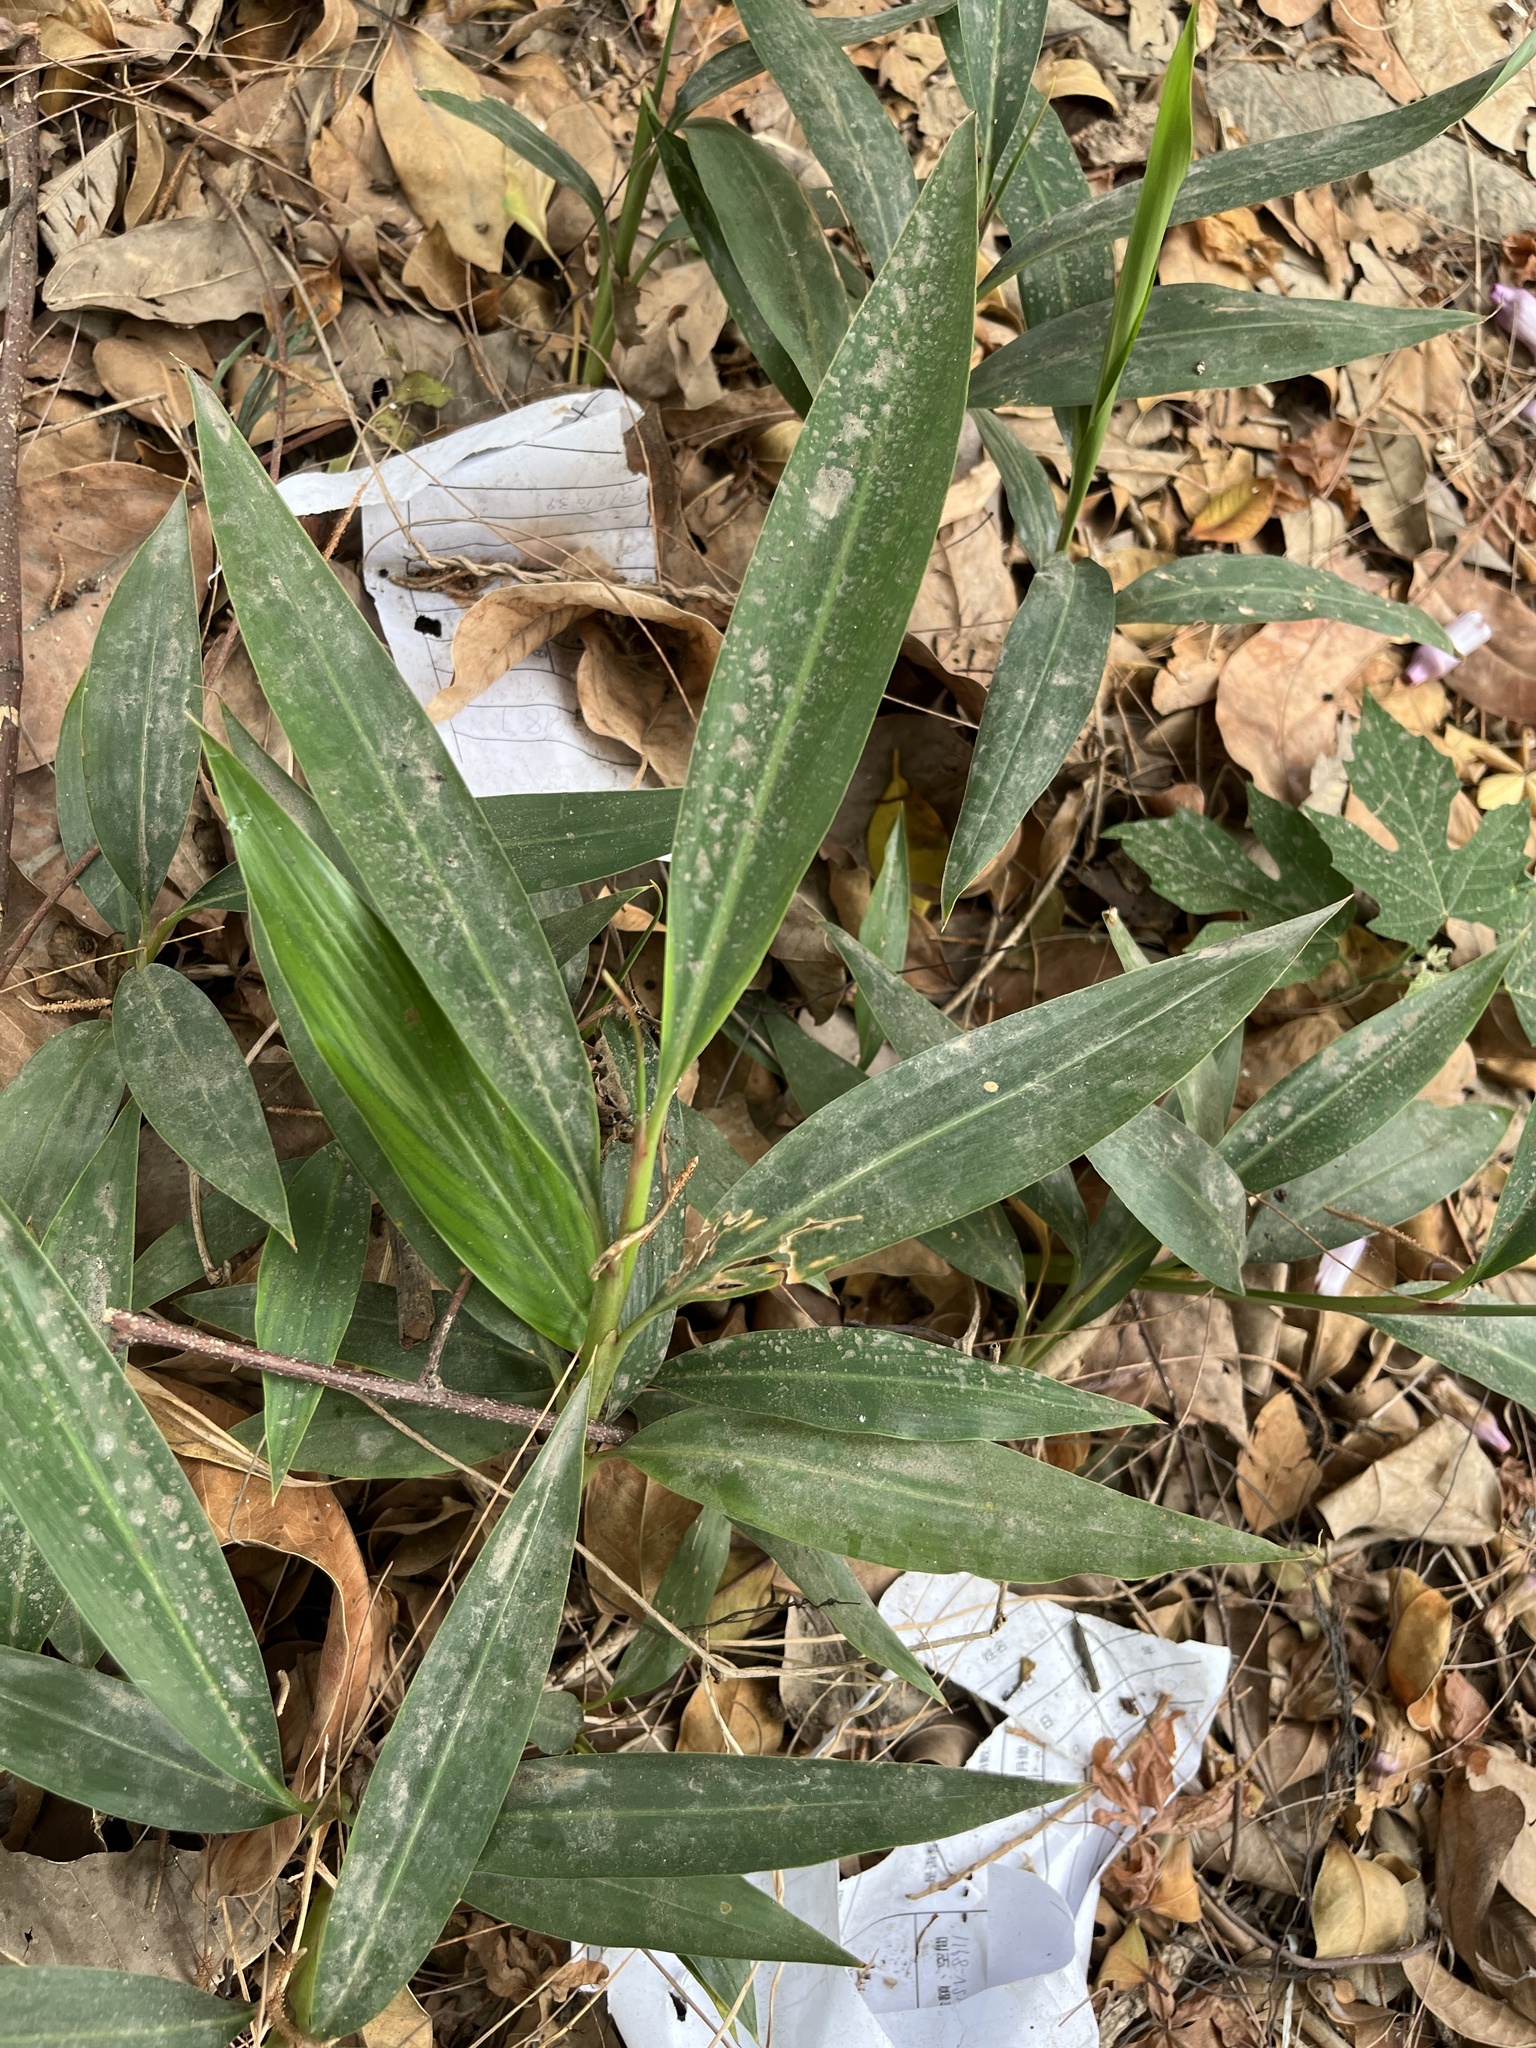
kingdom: Plantae
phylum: Tracheophyta
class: Liliopsida
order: Zingiberales
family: Zingiberaceae
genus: Alpinia
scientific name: Alpinia zerumbet
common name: Shellplant
